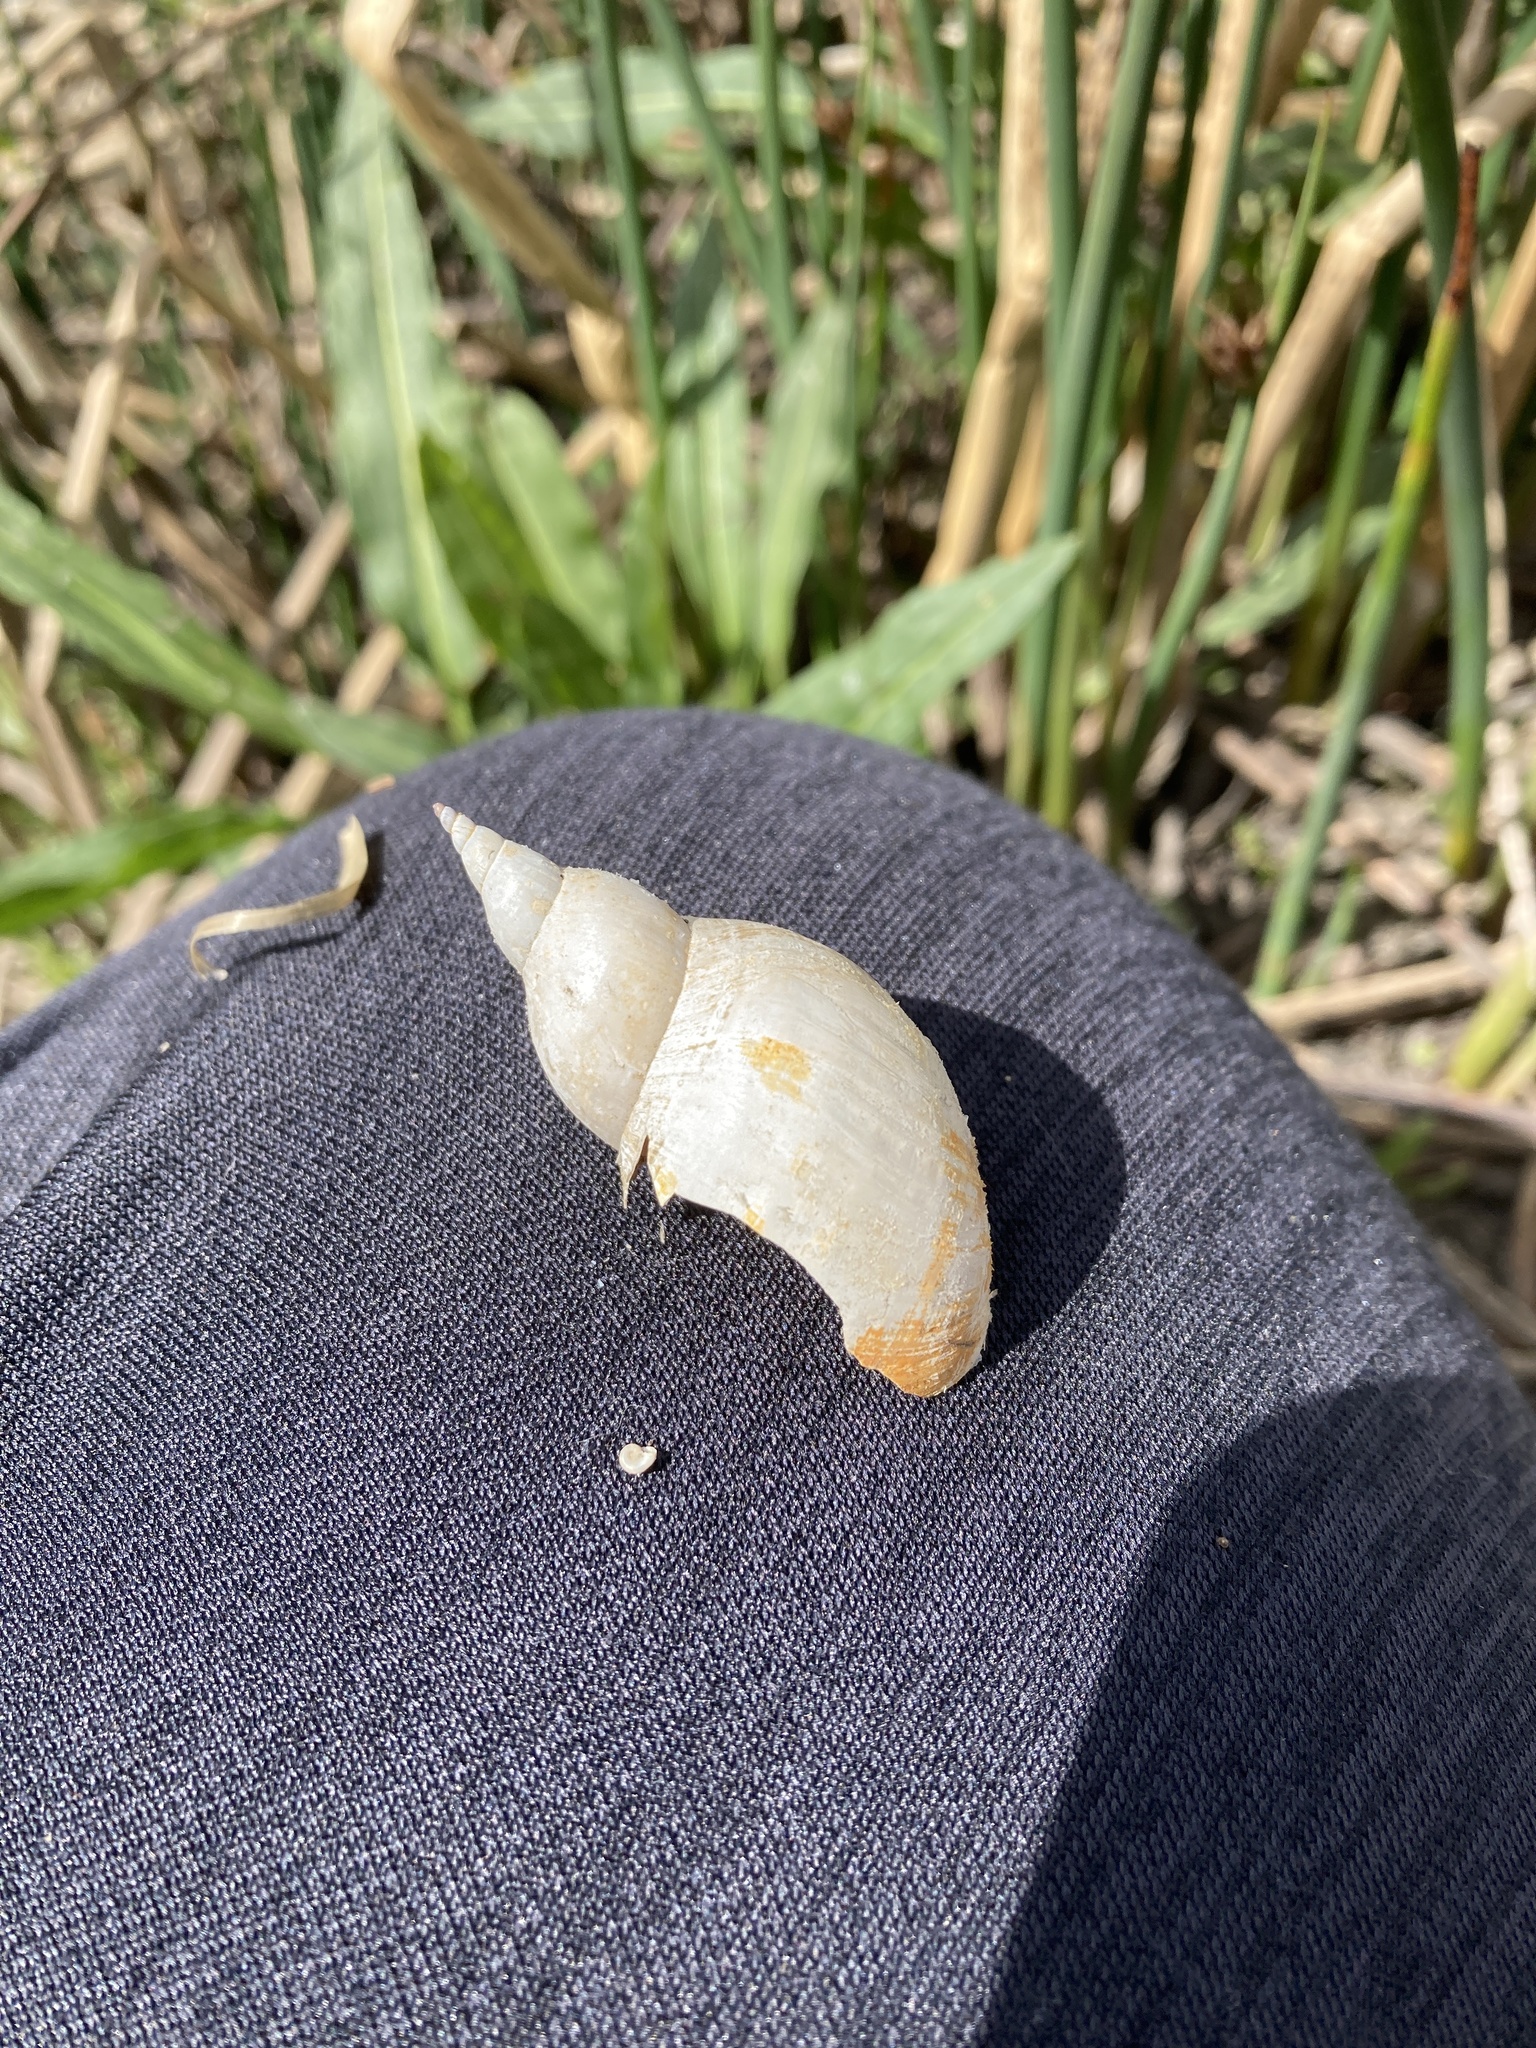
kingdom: Animalia
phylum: Mollusca
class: Gastropoda
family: Lymnaeidae
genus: Lymnaea
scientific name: Lymnaea stagnalis
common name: Great pond snail
